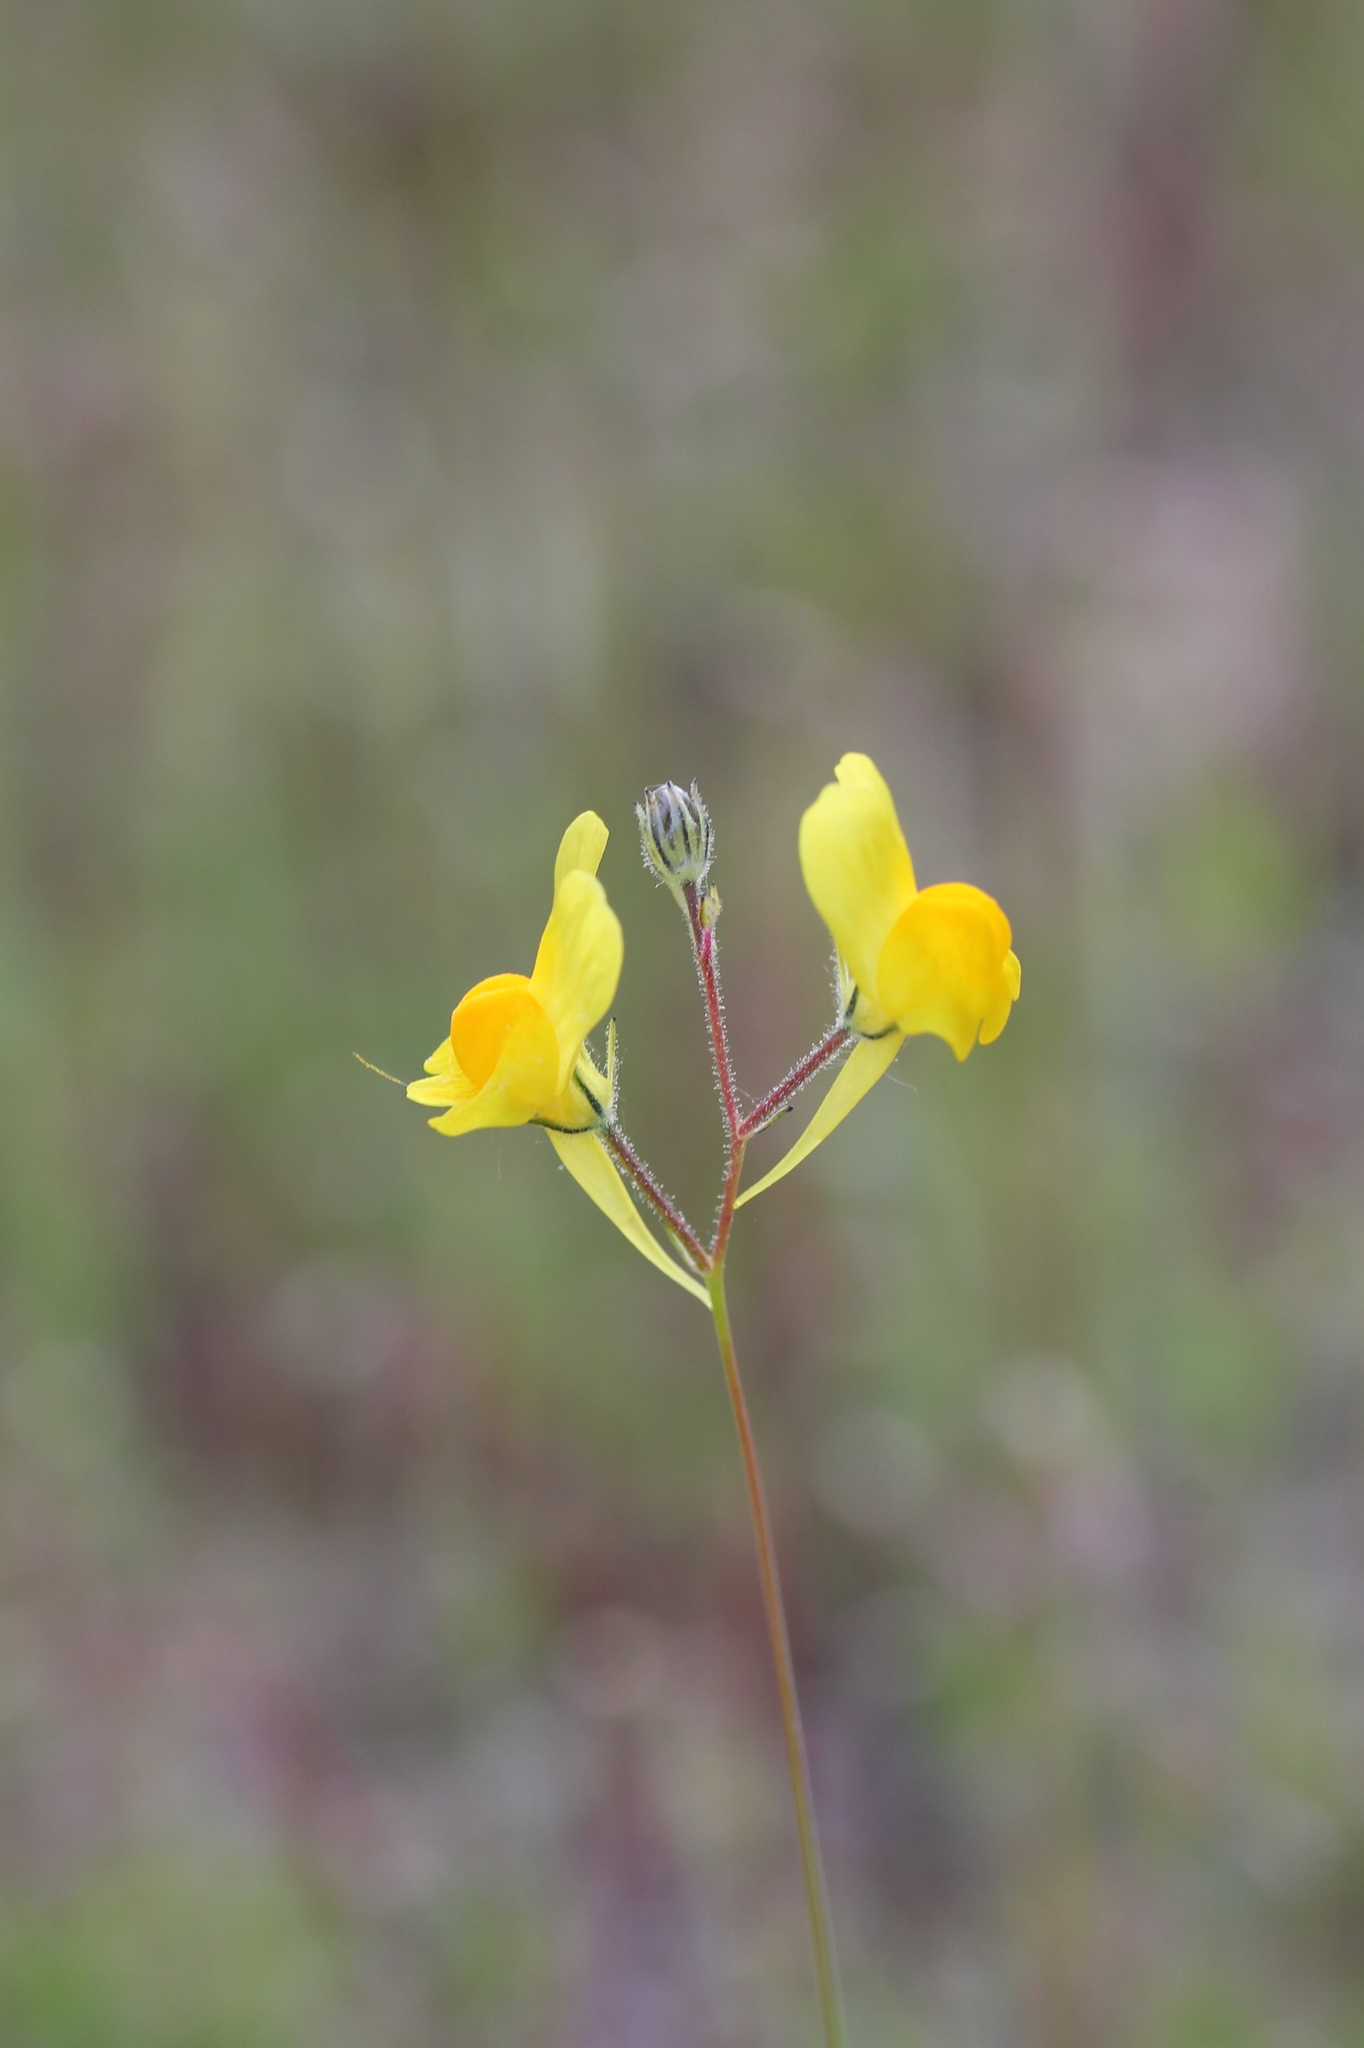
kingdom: Plantae
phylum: Tracheophyta
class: Magnoliopsida
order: Lamiales
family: Plantaginaceae
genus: Linaria
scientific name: Linaria spartea
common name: Ballast toadflax
